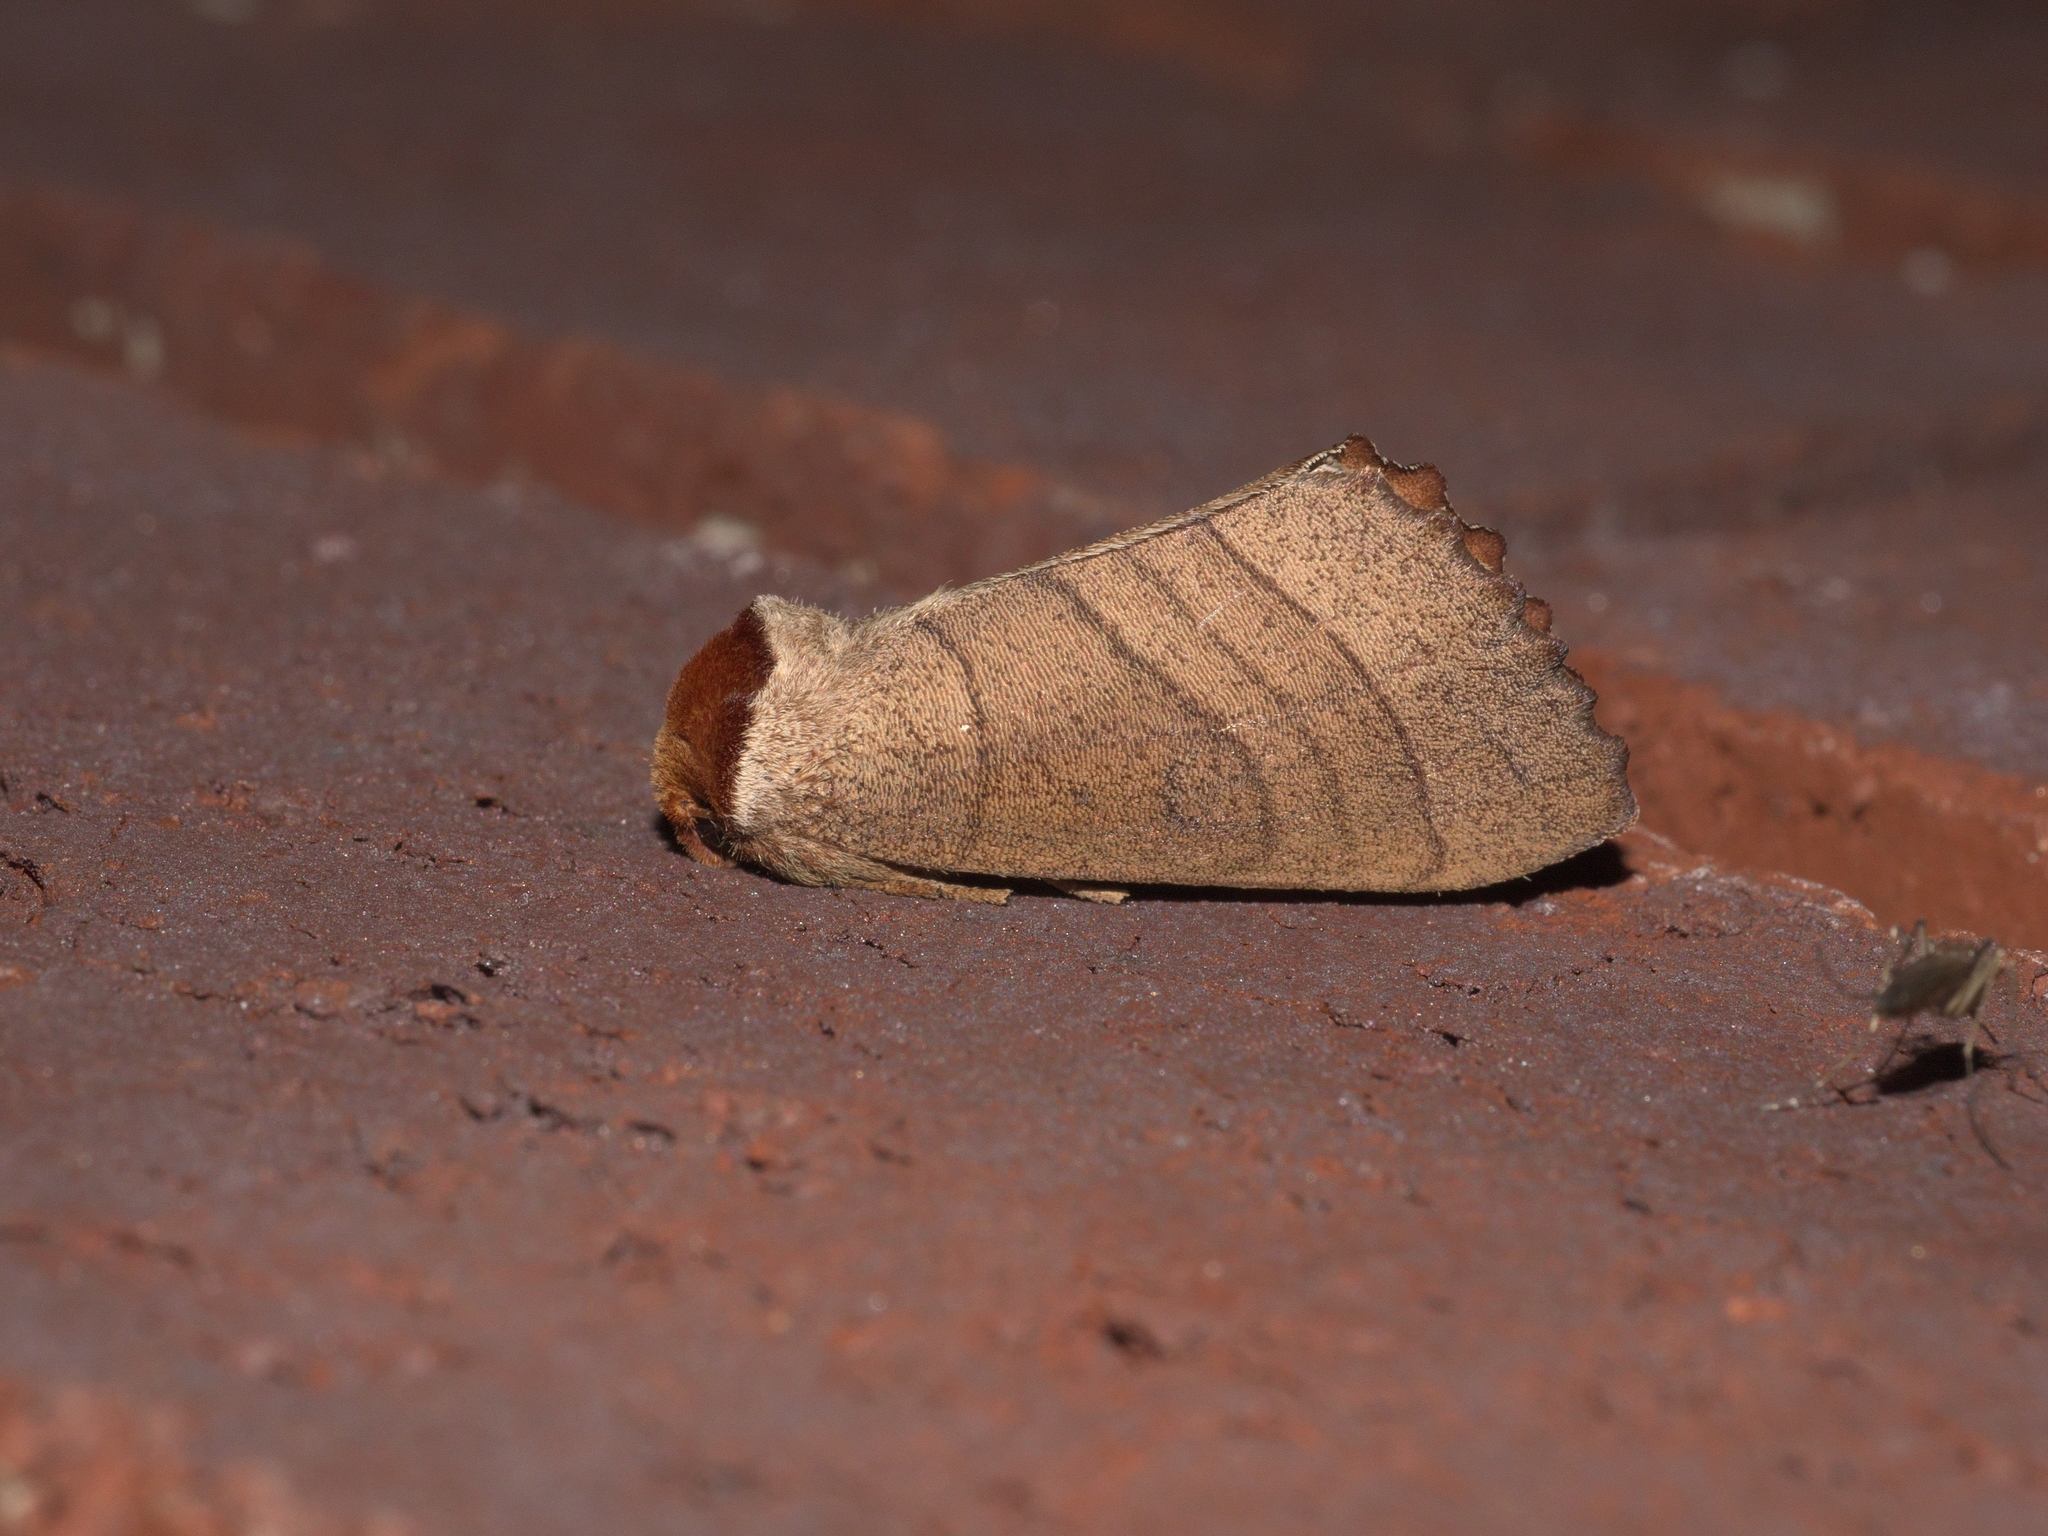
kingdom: Animalia
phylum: Arthropoda
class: Insecta
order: Lepidoptera
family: Notodontidae
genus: Datana
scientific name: Datana ministra
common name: Yellow-necked caterpillar moth
